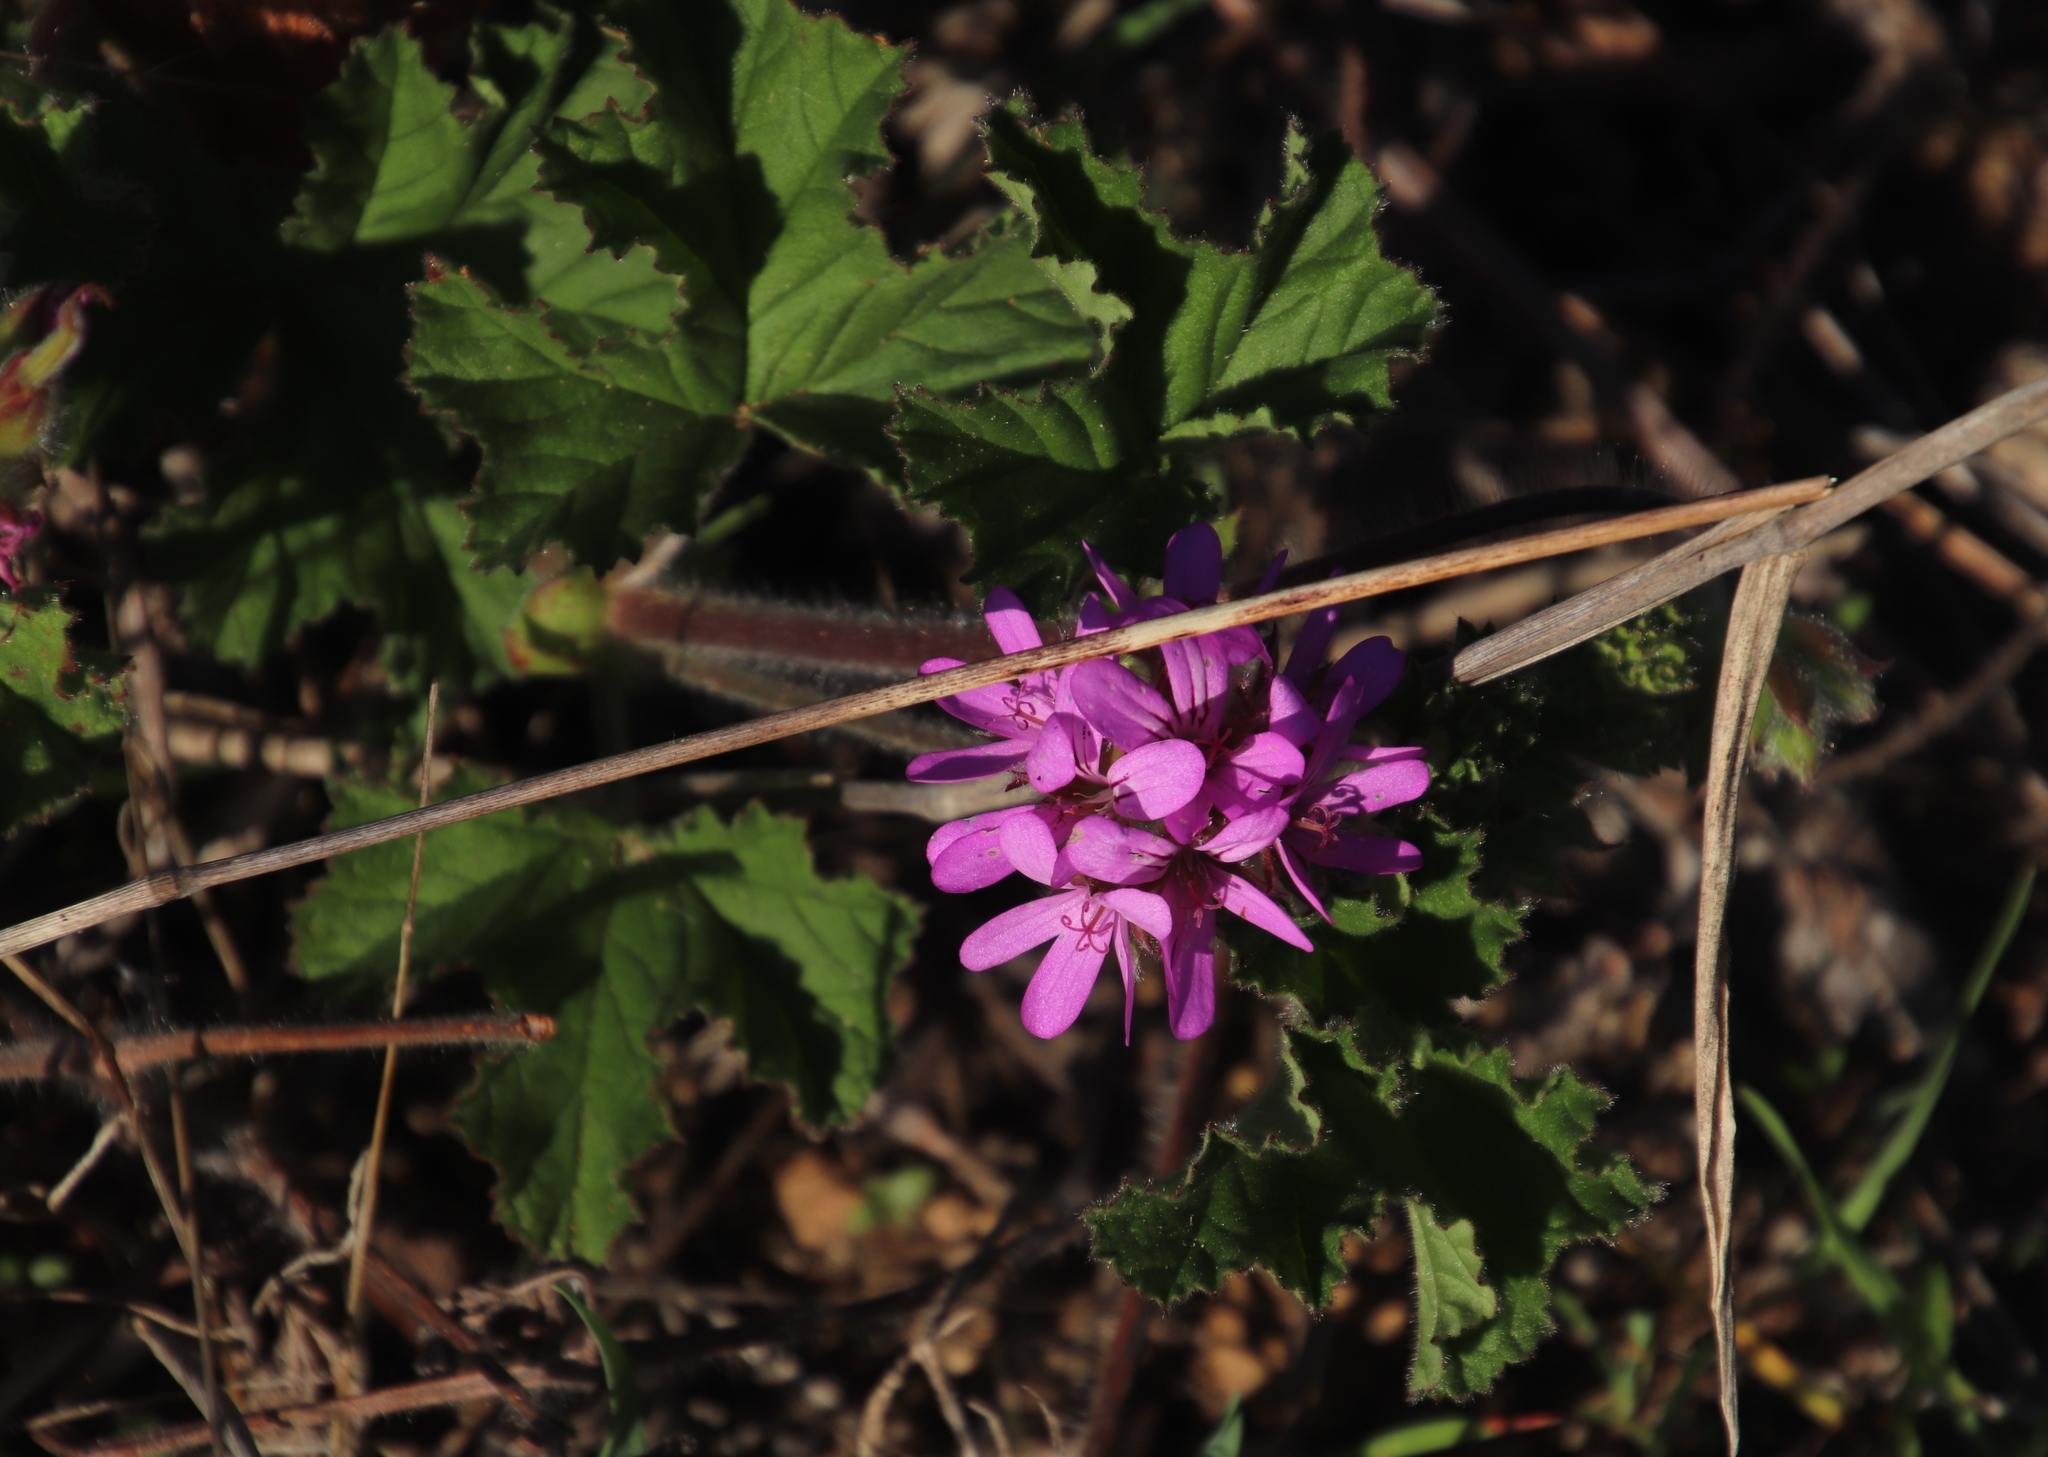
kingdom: Plantae
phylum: Tracheophyta
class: Magnoliopsida
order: Geraniales
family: Geraniaceae
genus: Pelargonium
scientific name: Pelargonium capitatum
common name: Rose scented geranium
